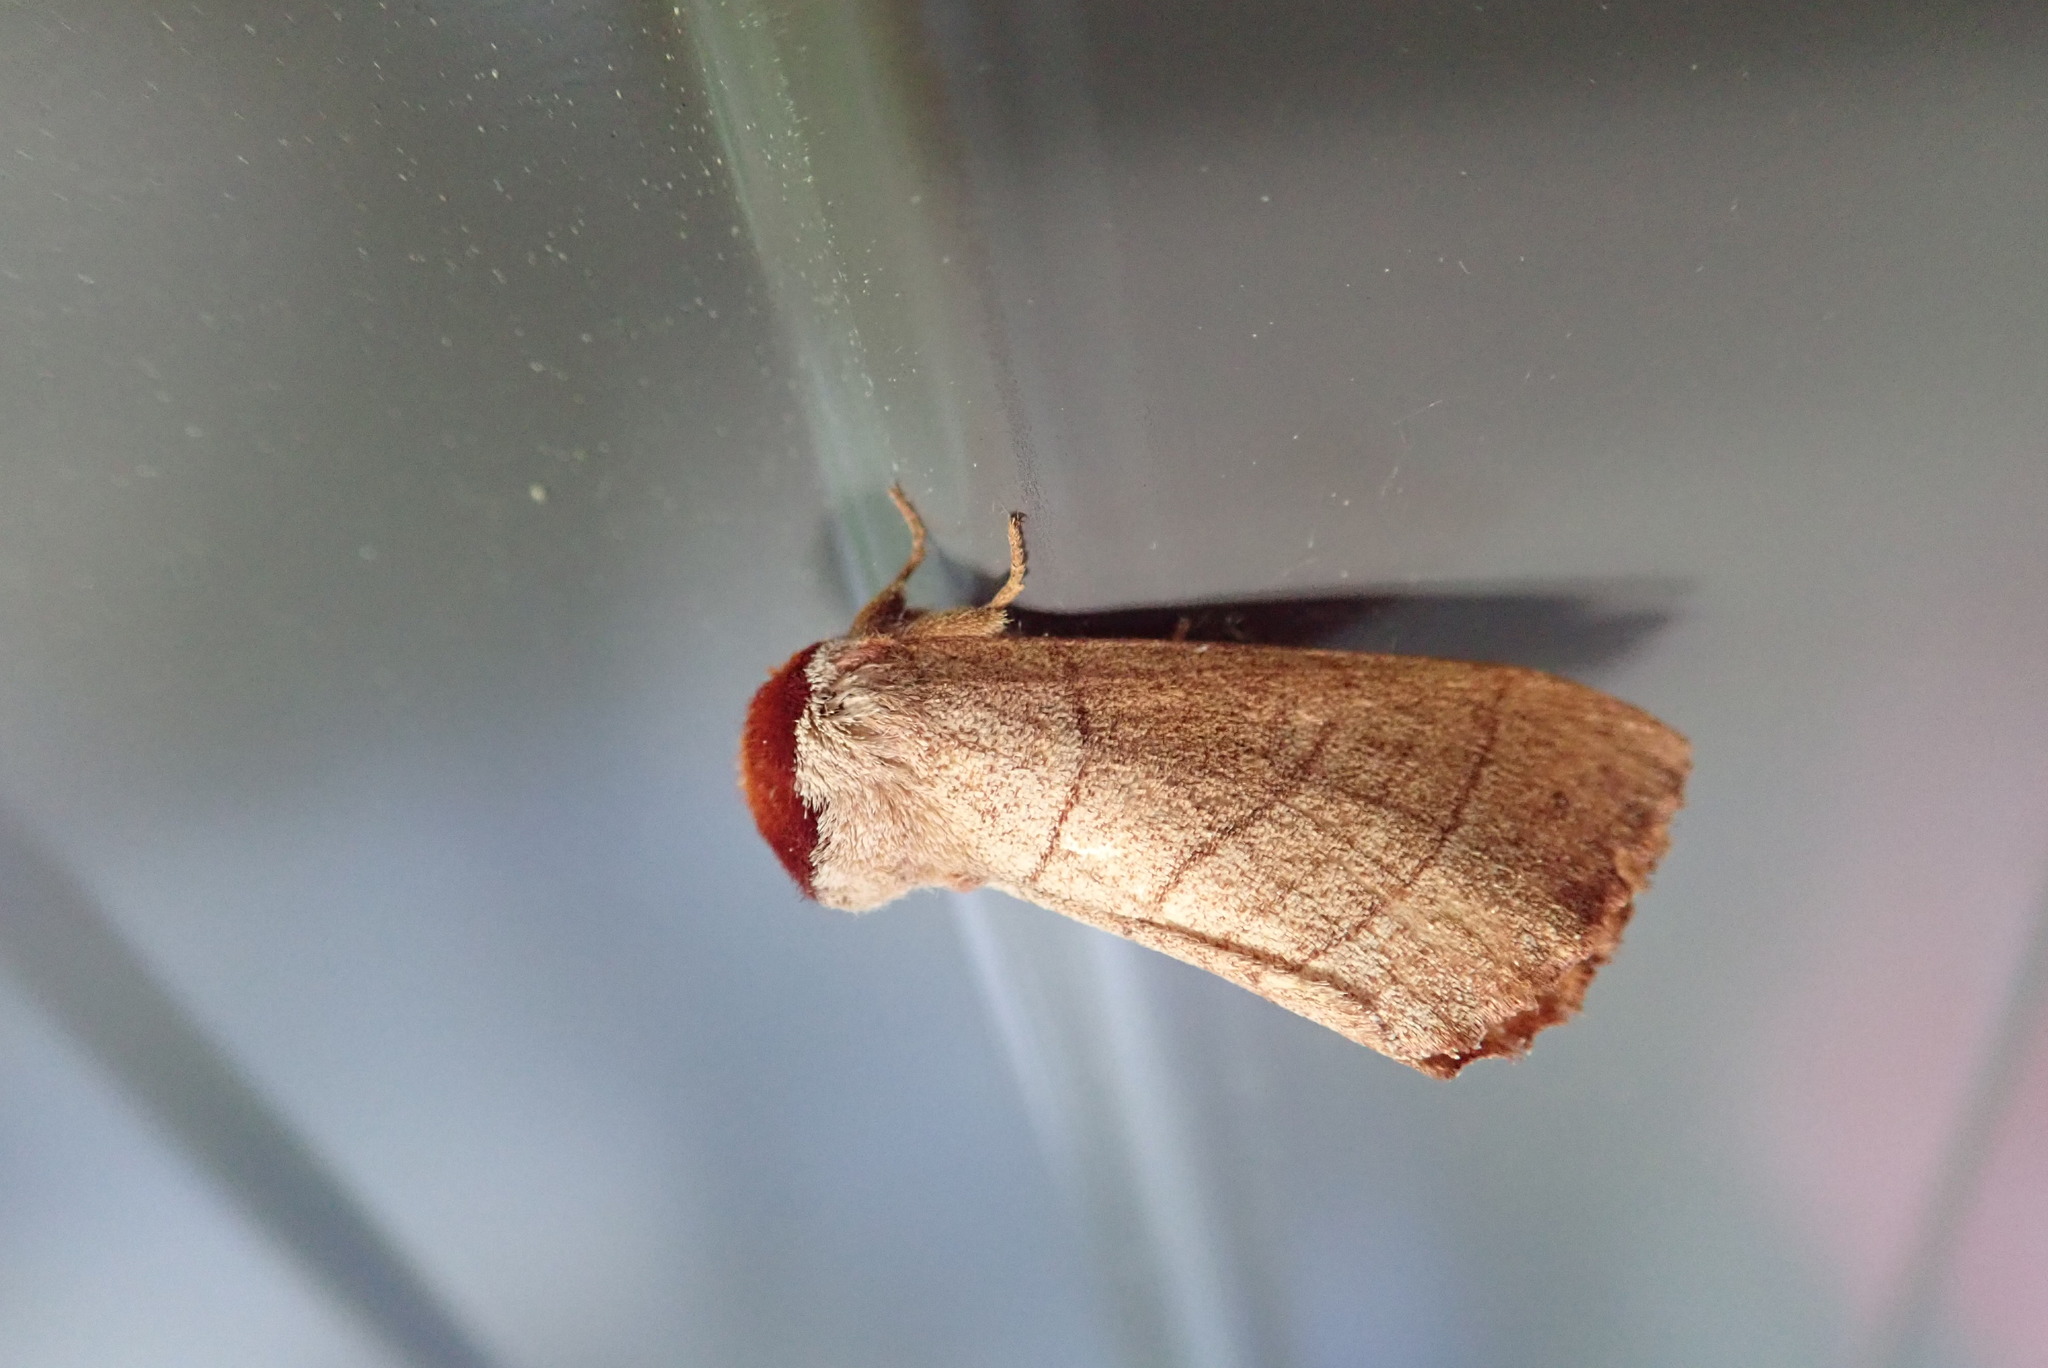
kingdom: Animalia
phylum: Arthropoda
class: Insecta
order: Lepidoptera
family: Notodontidae
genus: Datana
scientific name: Datana ministra
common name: Yellow-necked caterpillar moth
